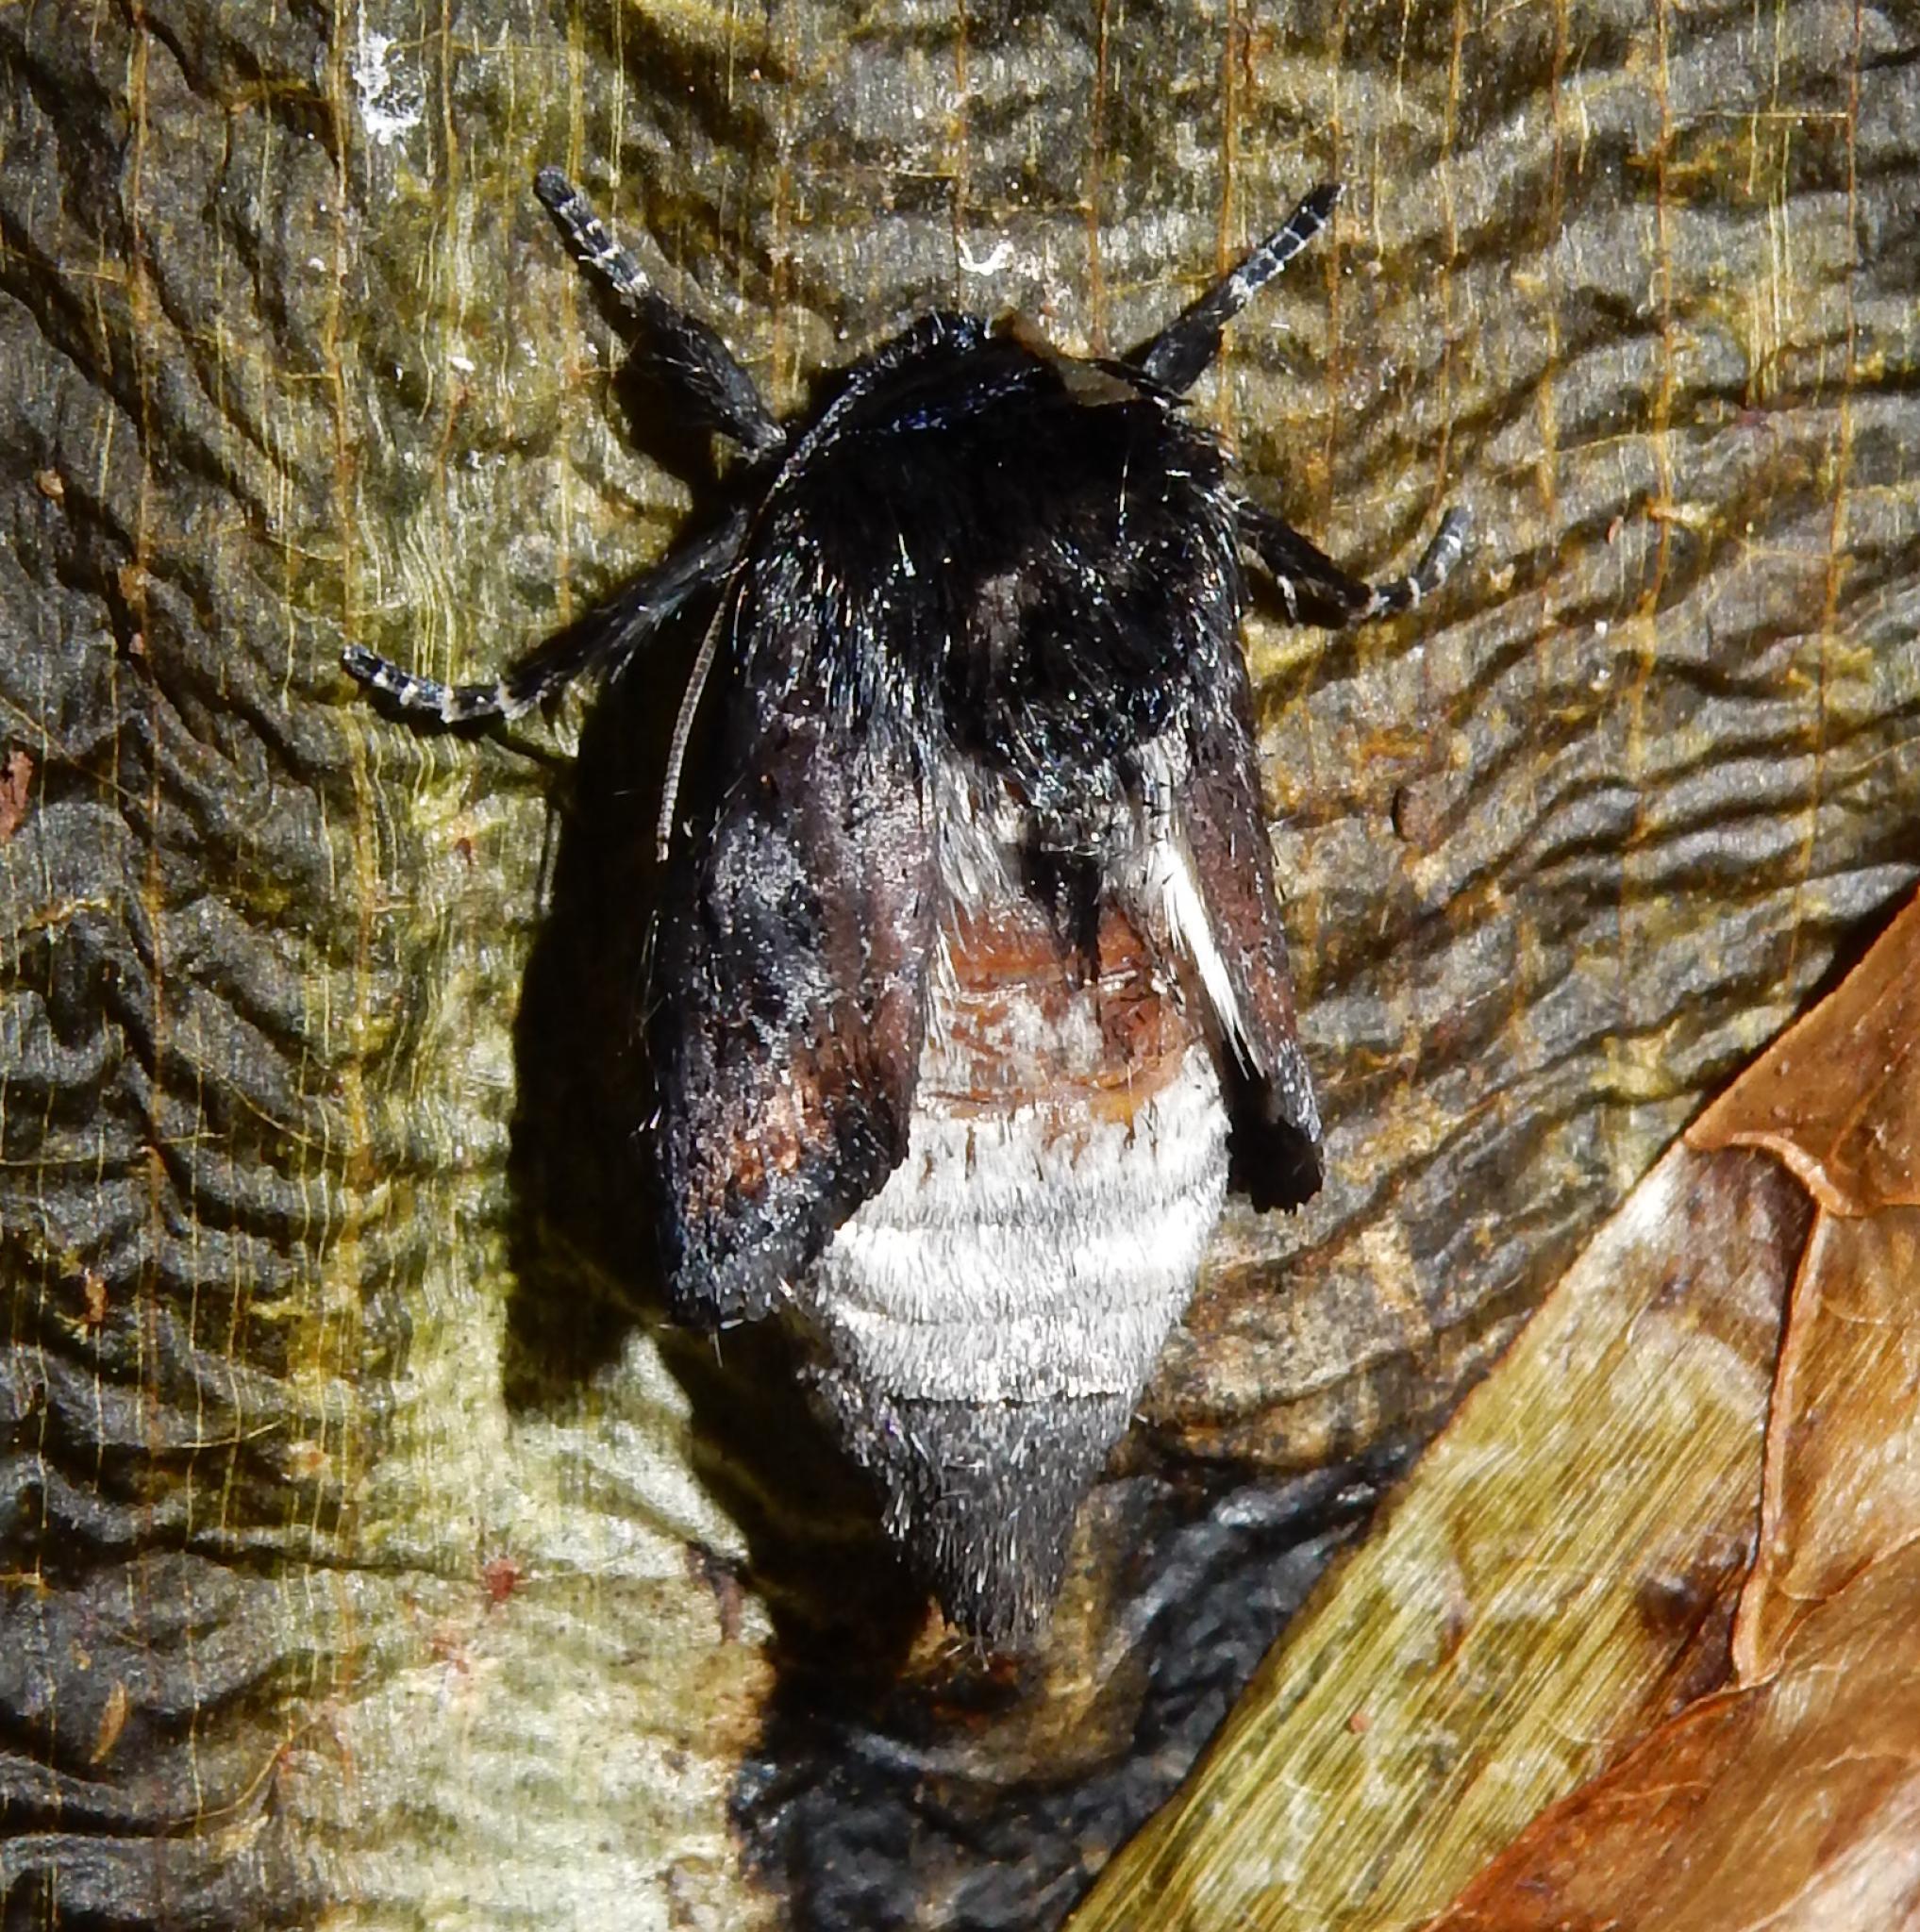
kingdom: Animalia
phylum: Arthropoda
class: Insecta
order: Lepidoptera
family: Noctuidae
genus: Brithys
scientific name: Brithys crini
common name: Kew arches
